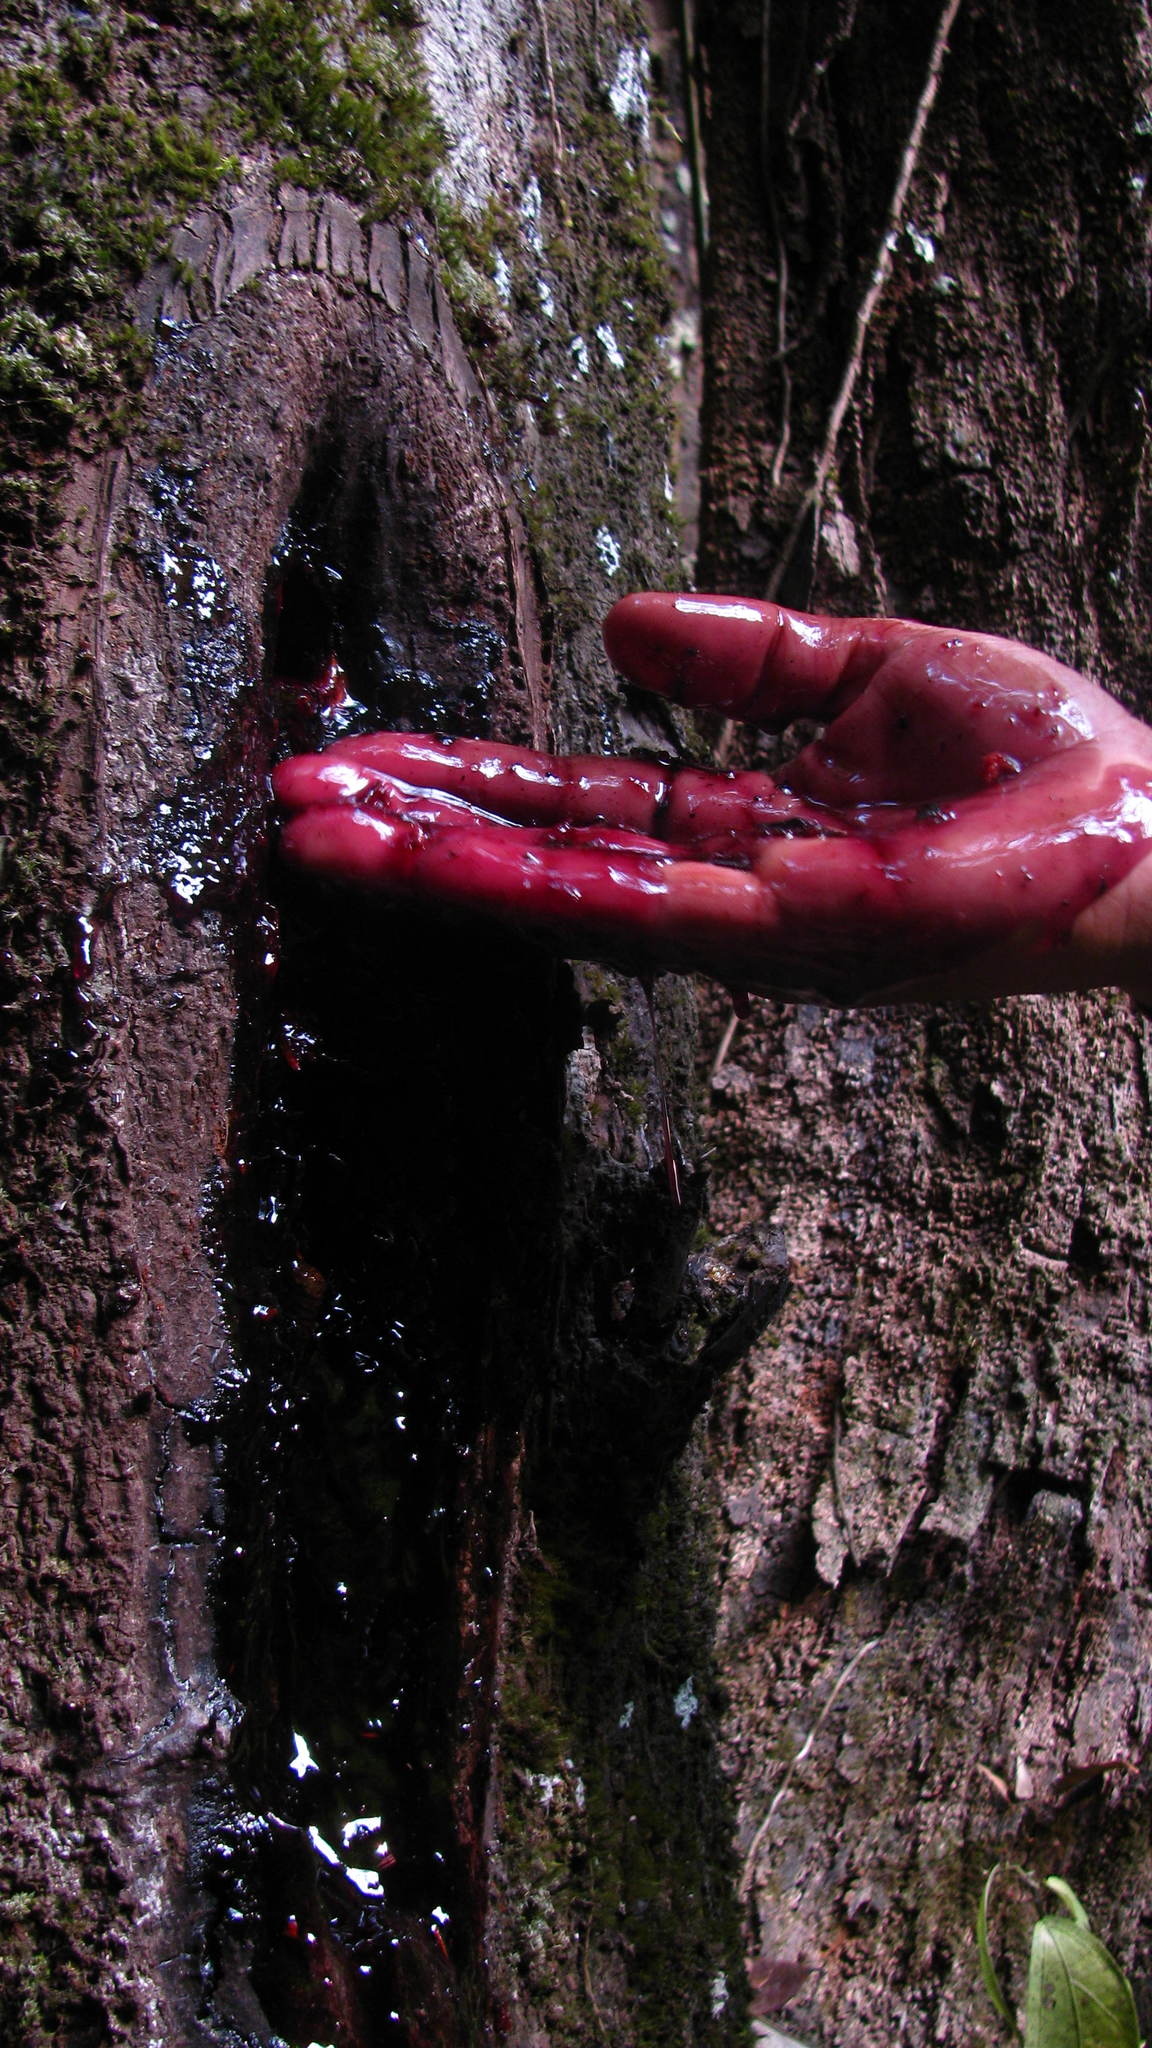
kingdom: Plantae
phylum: Tracheophyta
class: Magnoliopsida
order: Fabales
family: Fabaceae
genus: Prioria
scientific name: Prioria pinnata
